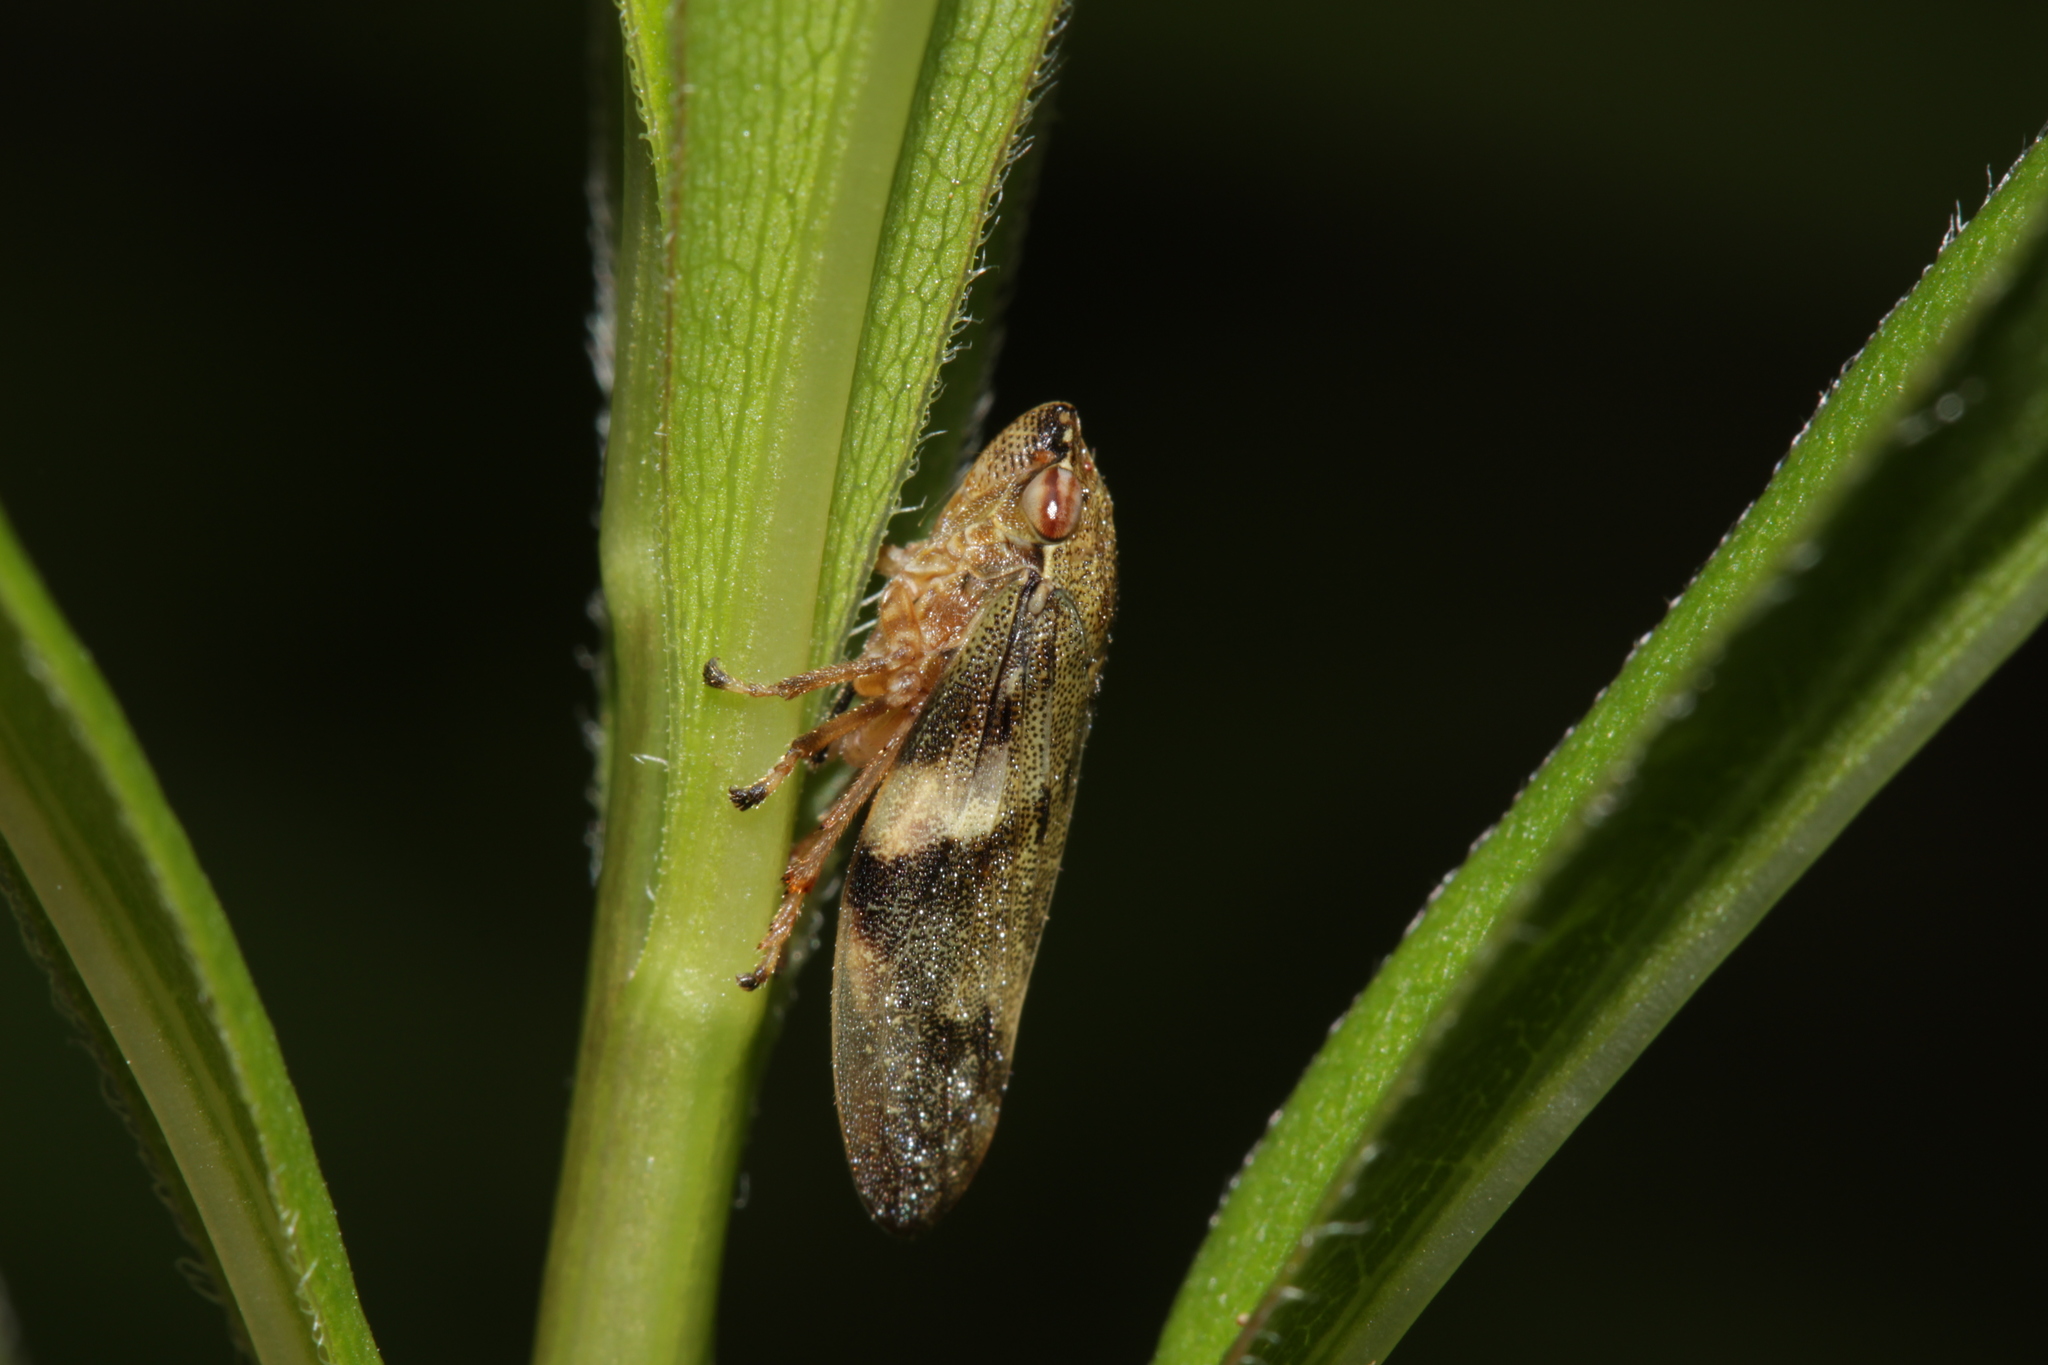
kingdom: Animalia
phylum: Arthropoda
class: Insecta
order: Hemiptera
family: Aphrophoridae
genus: Aphrophora
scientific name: Aphrophora alni
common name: European alder spittlebug
